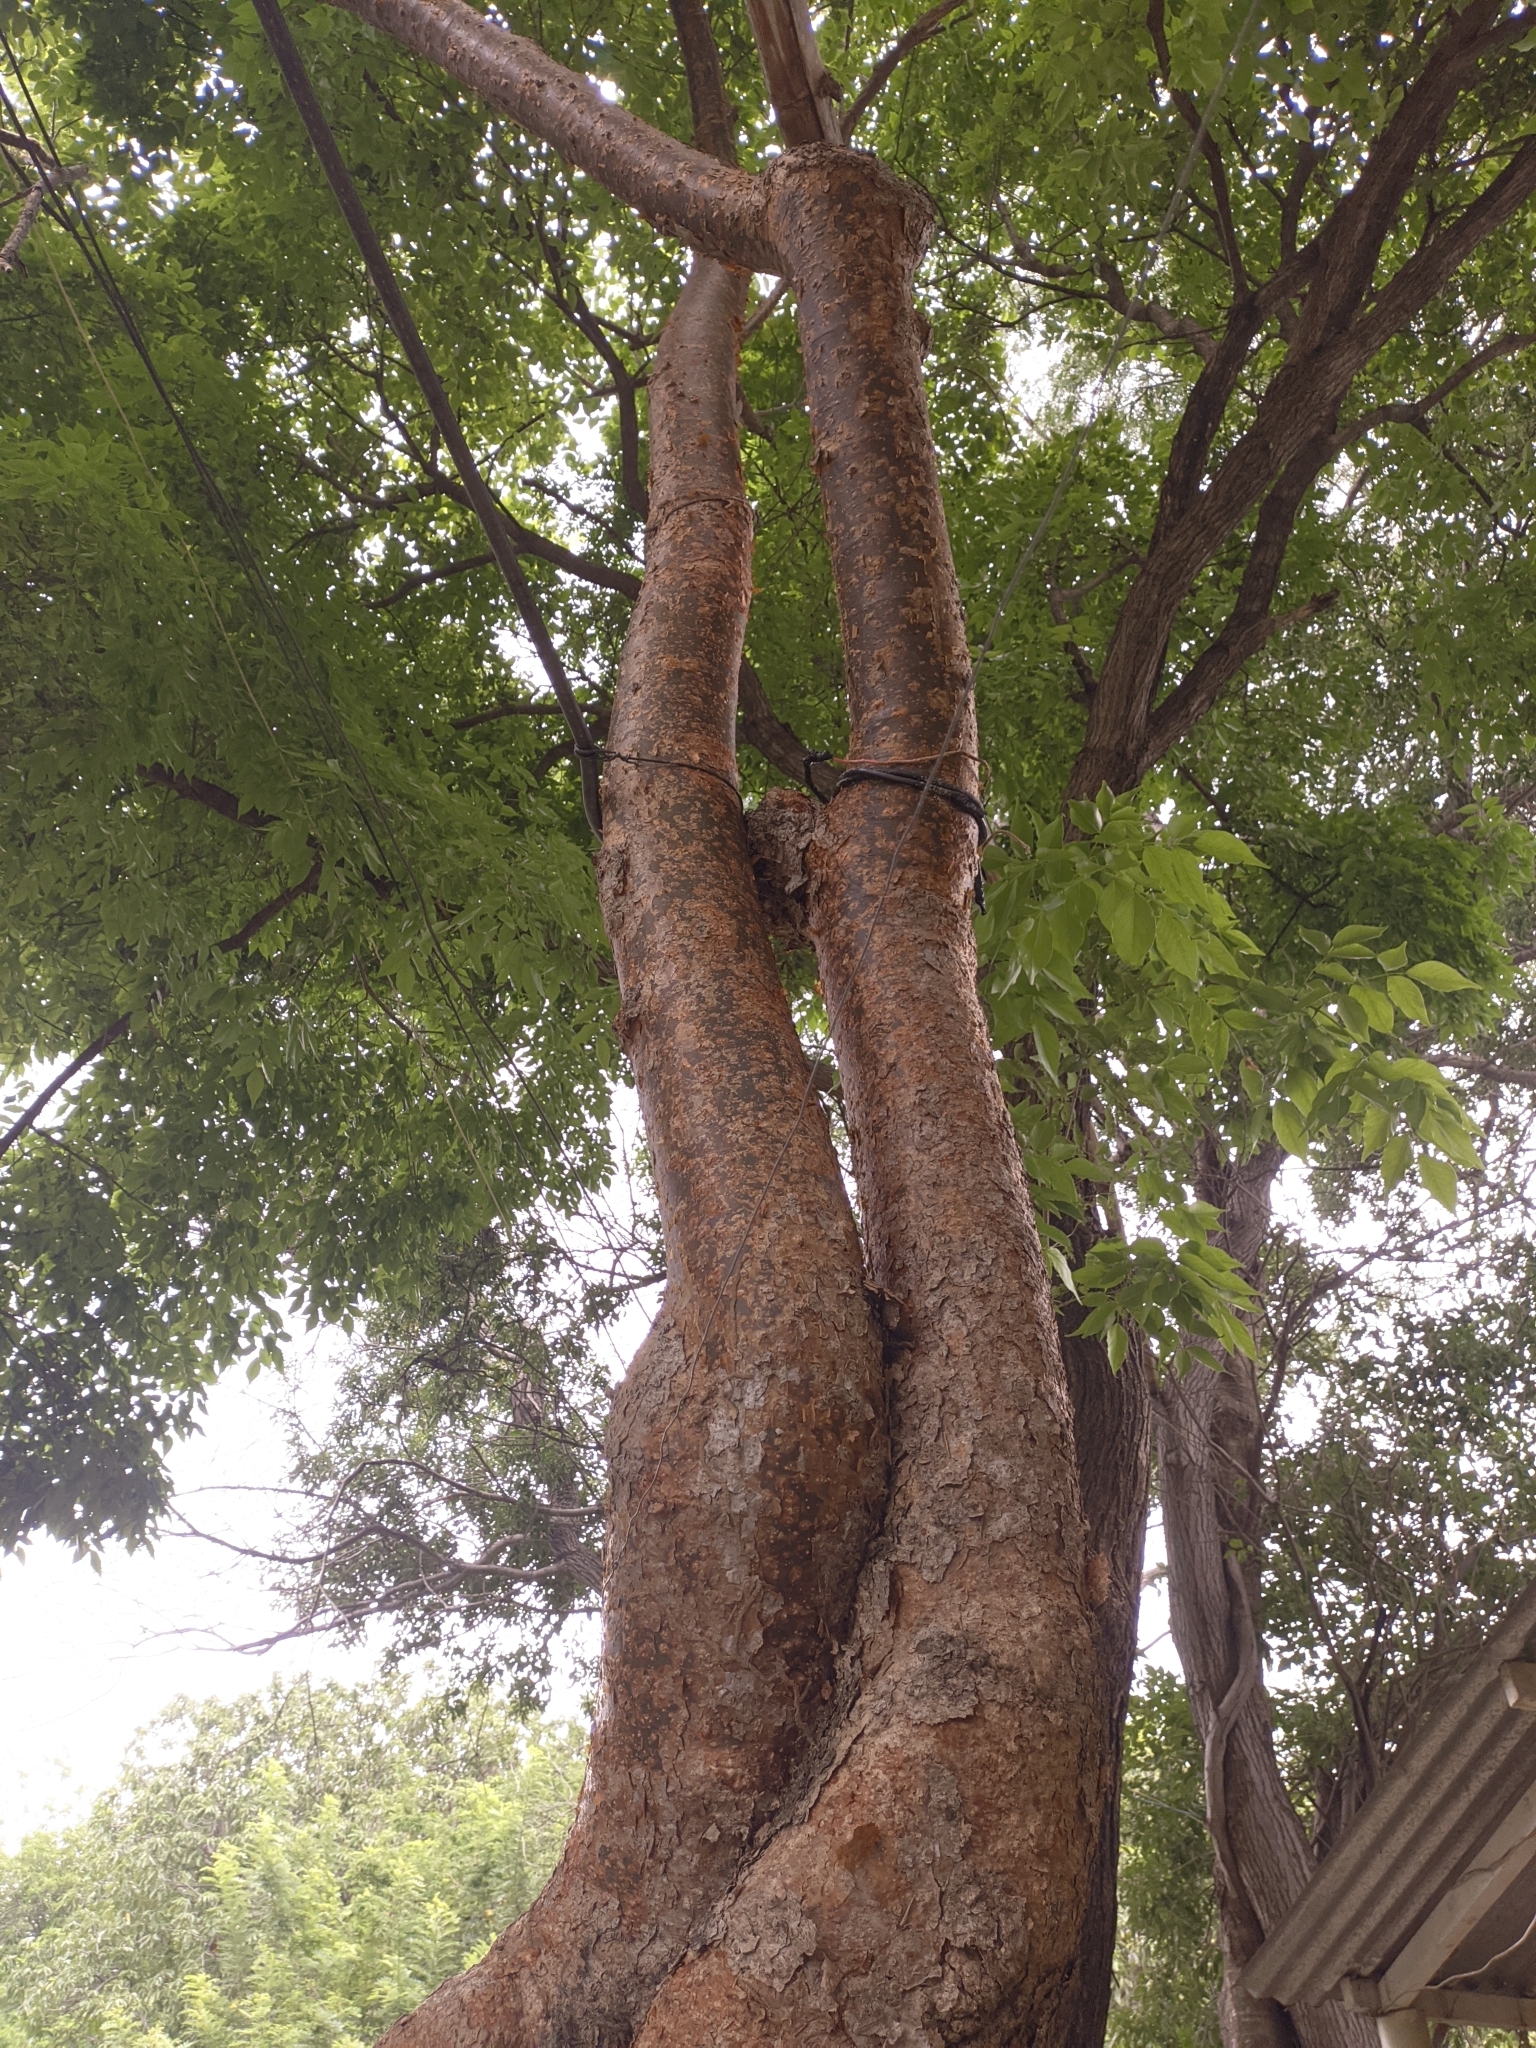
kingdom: Plantae
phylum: Tracheophyta
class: Magnoliopsida
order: Sapindales
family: Burseraceae
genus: Bursera
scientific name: Bursera simaruba
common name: Turpentine tree
